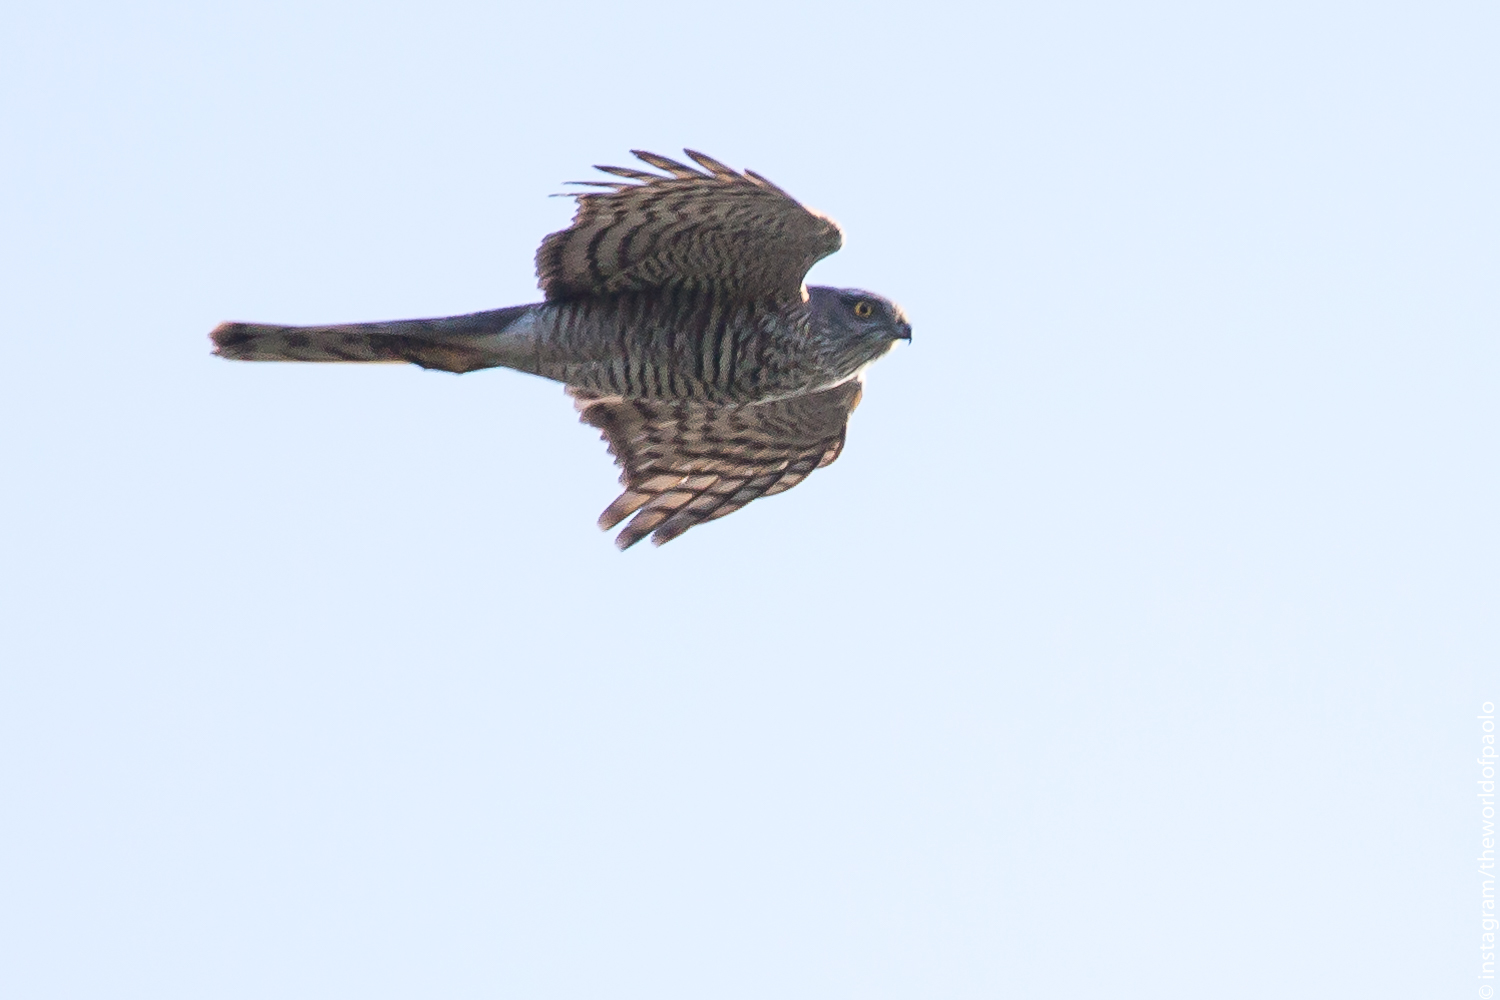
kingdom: Animalia
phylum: Chordata
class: Aves
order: Accipitriformes
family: Accipitridae
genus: Accipiter
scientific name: Accipiter nisus
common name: Eurasian sparrowhawk
